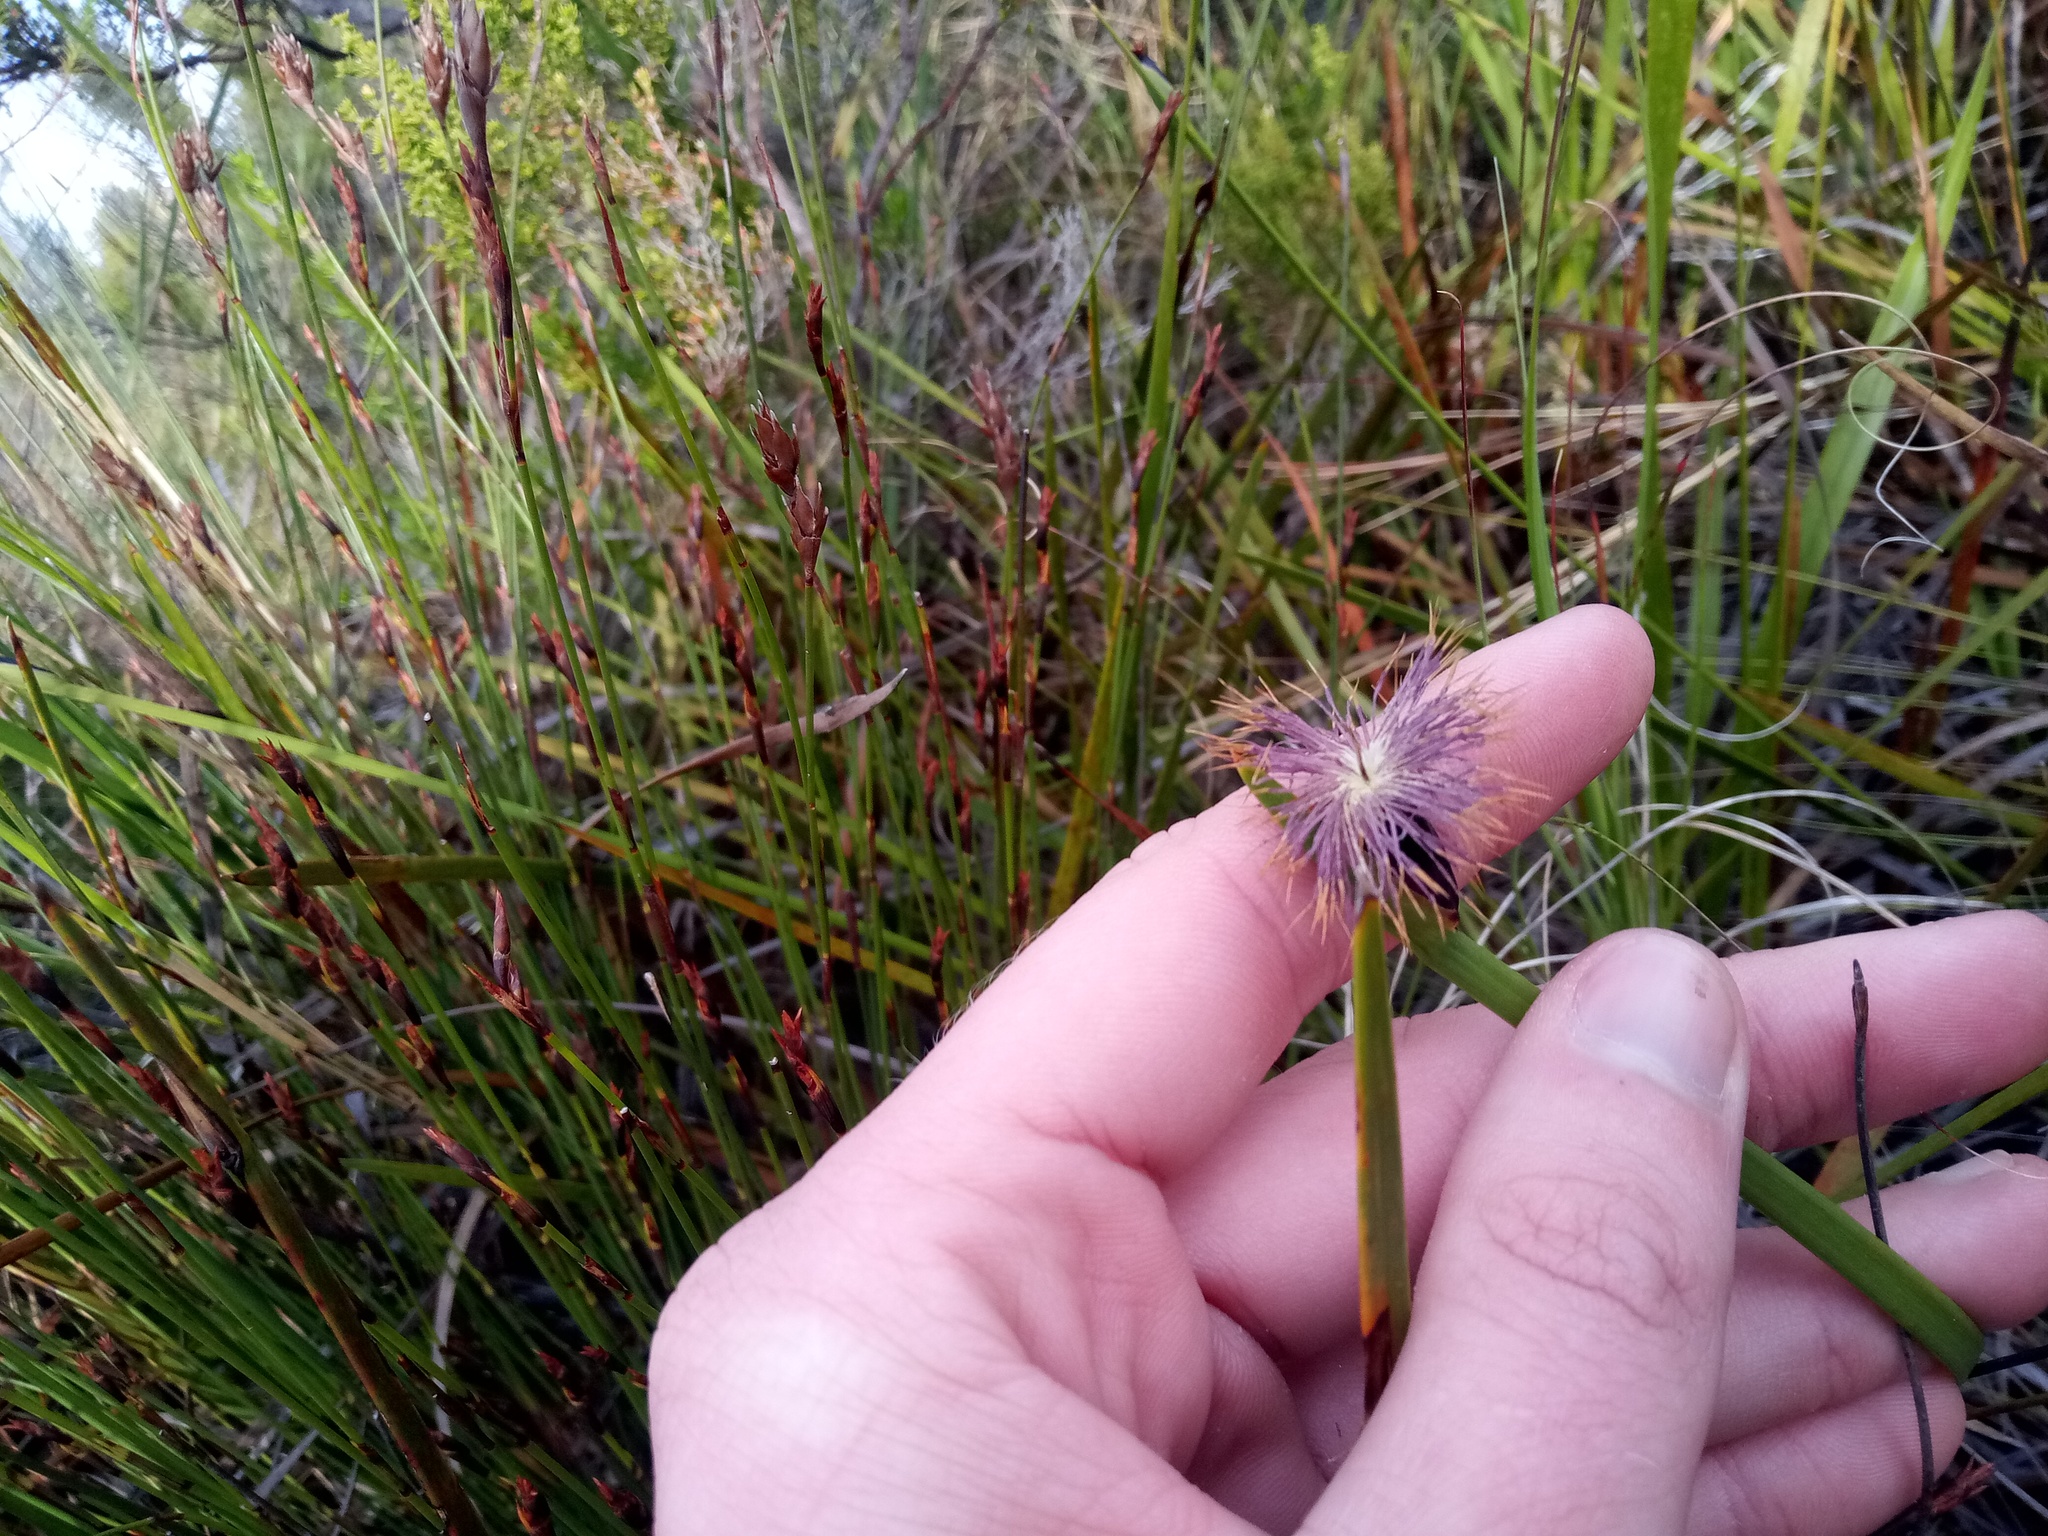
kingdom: Plantae
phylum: Tracheophyta
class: Liliopsida
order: Poales
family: Cyperaceae
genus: Chrysitrix
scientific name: Chrysitrix capensis
